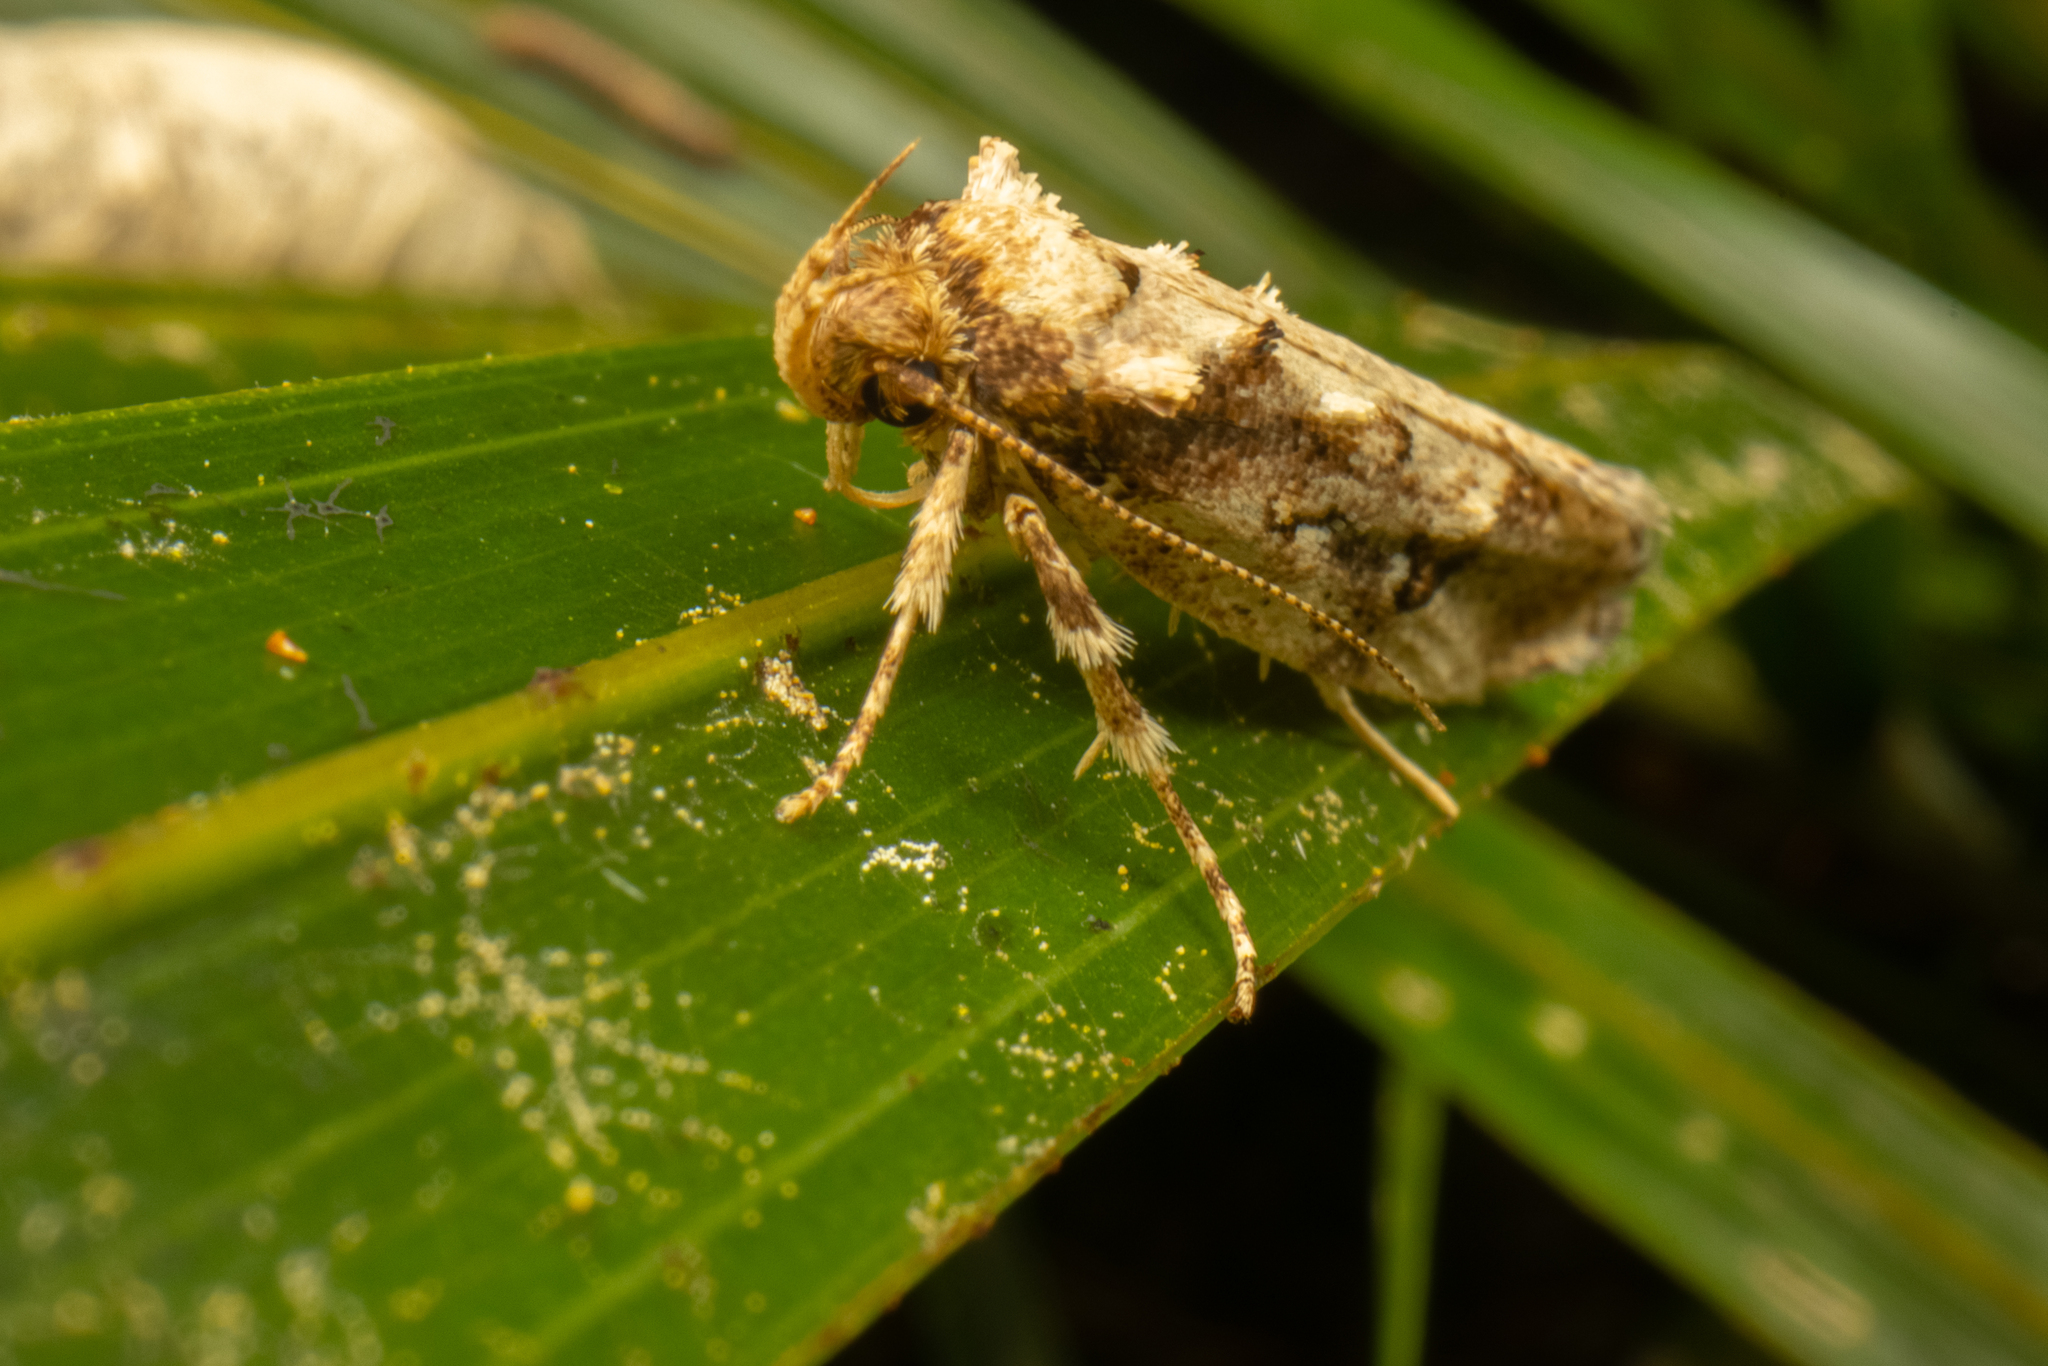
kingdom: Animalia
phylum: Arthropoda
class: Insecta
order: Lepidoptera
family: Oecophoridae
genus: Atomotricha
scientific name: Atomotricha isogama
